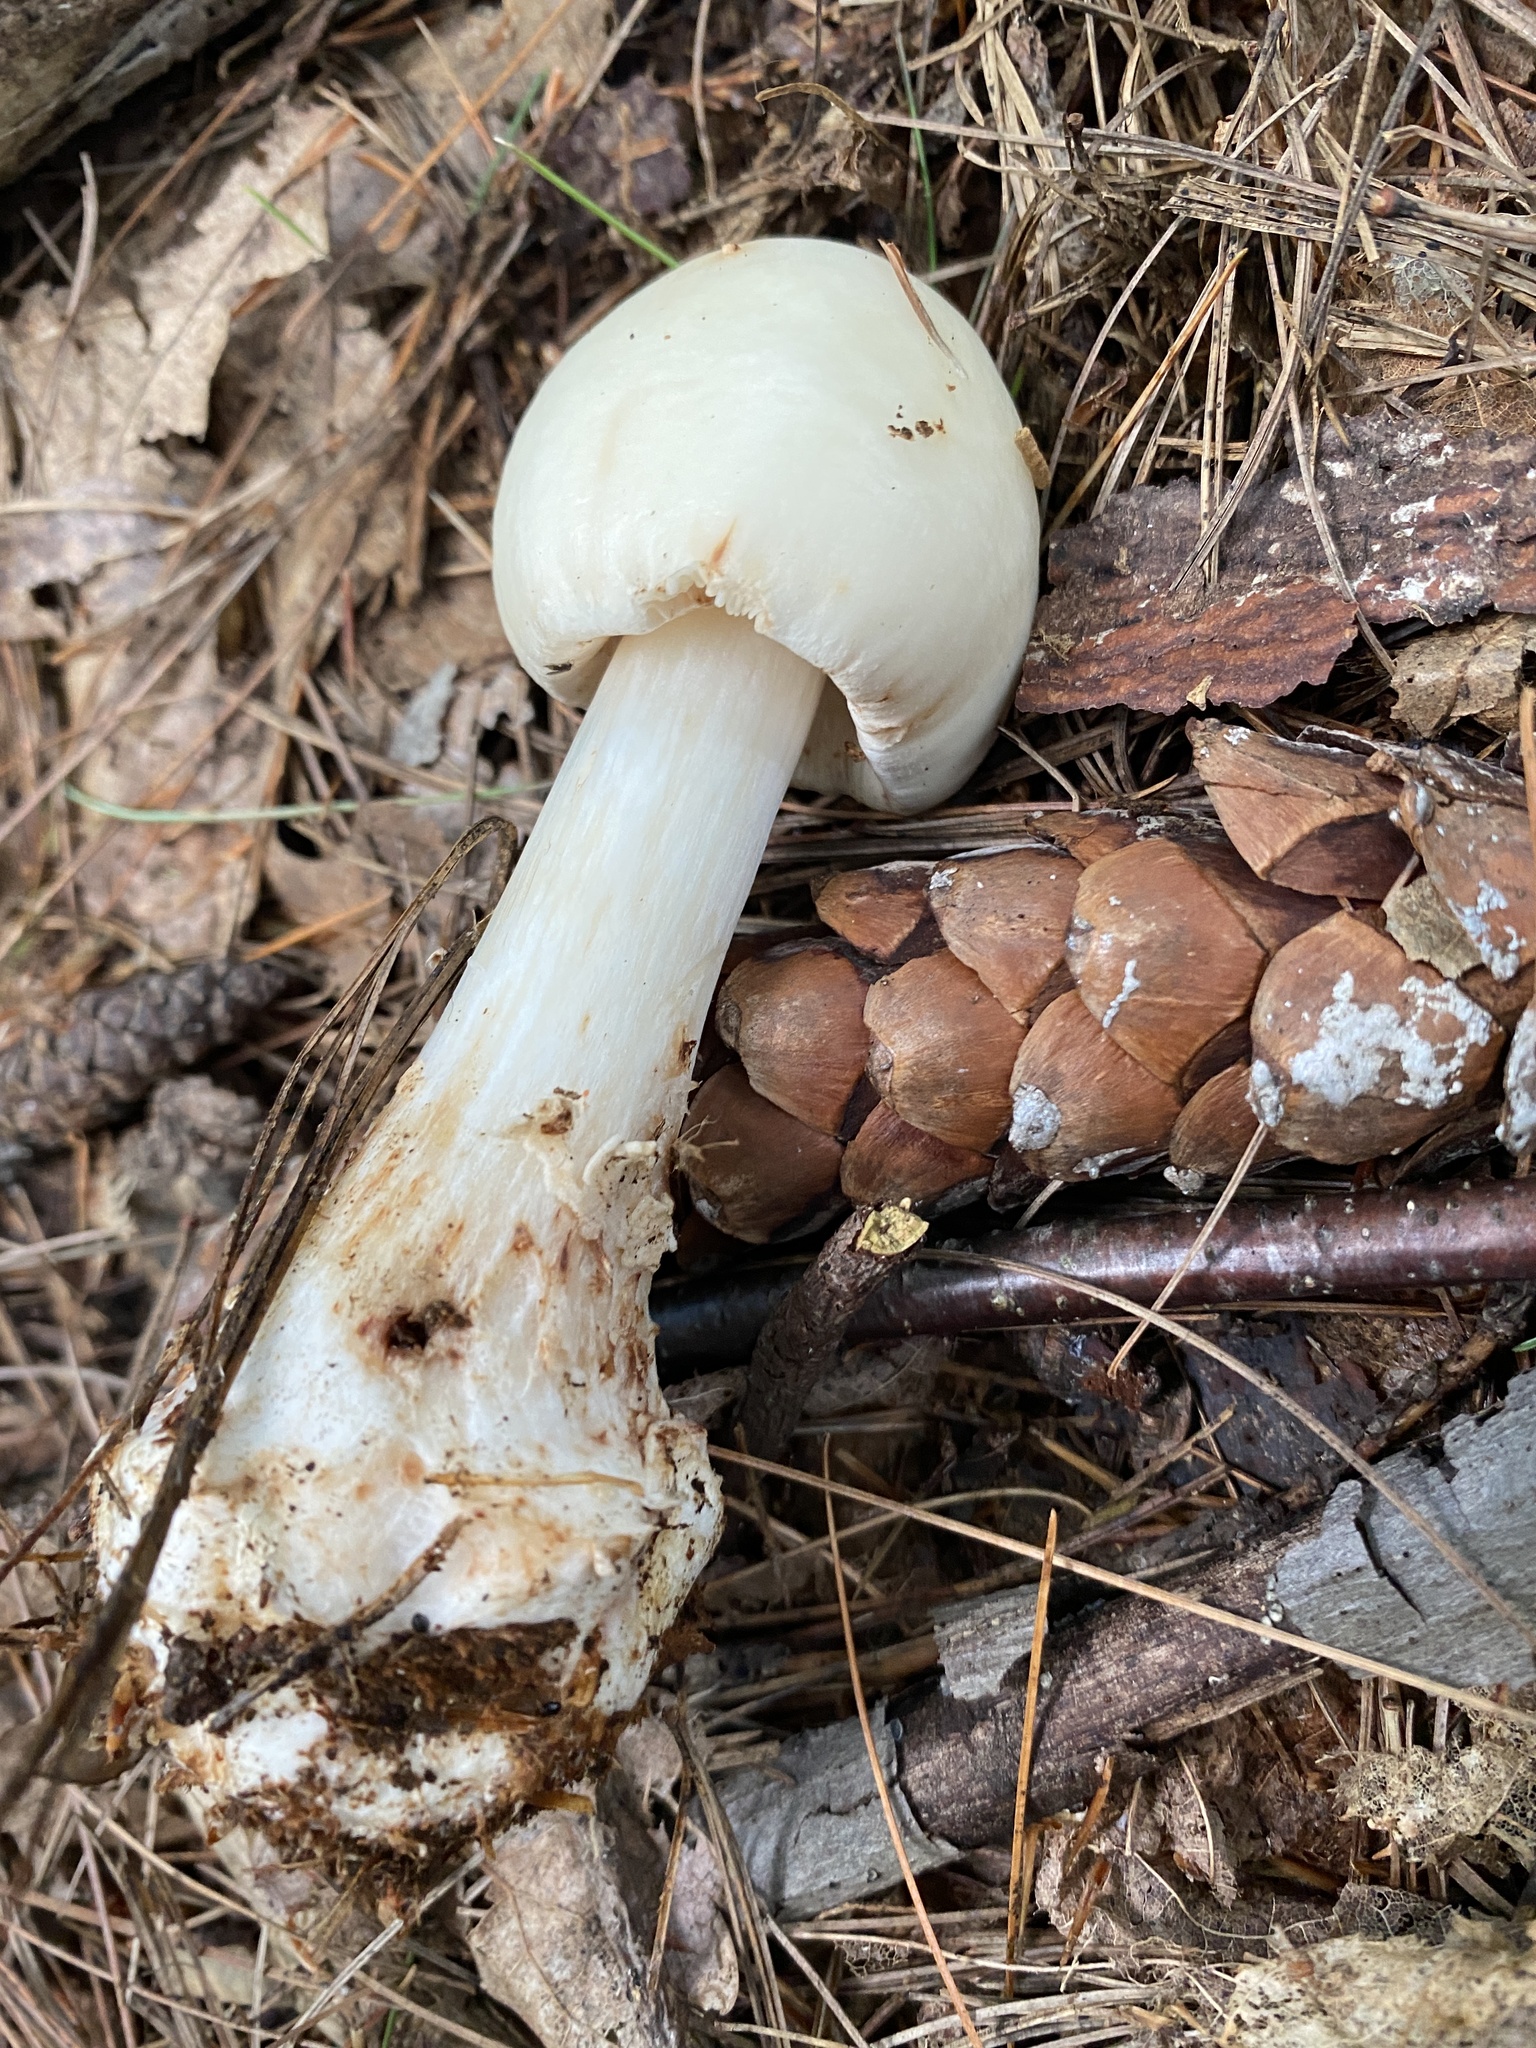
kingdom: Fungi
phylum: Basidiomycota
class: Agaricomycetes
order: Agaricales
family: Amanitaceae
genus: Amanita
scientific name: Amanita brunnescens
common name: Brown american star-footed amanita
